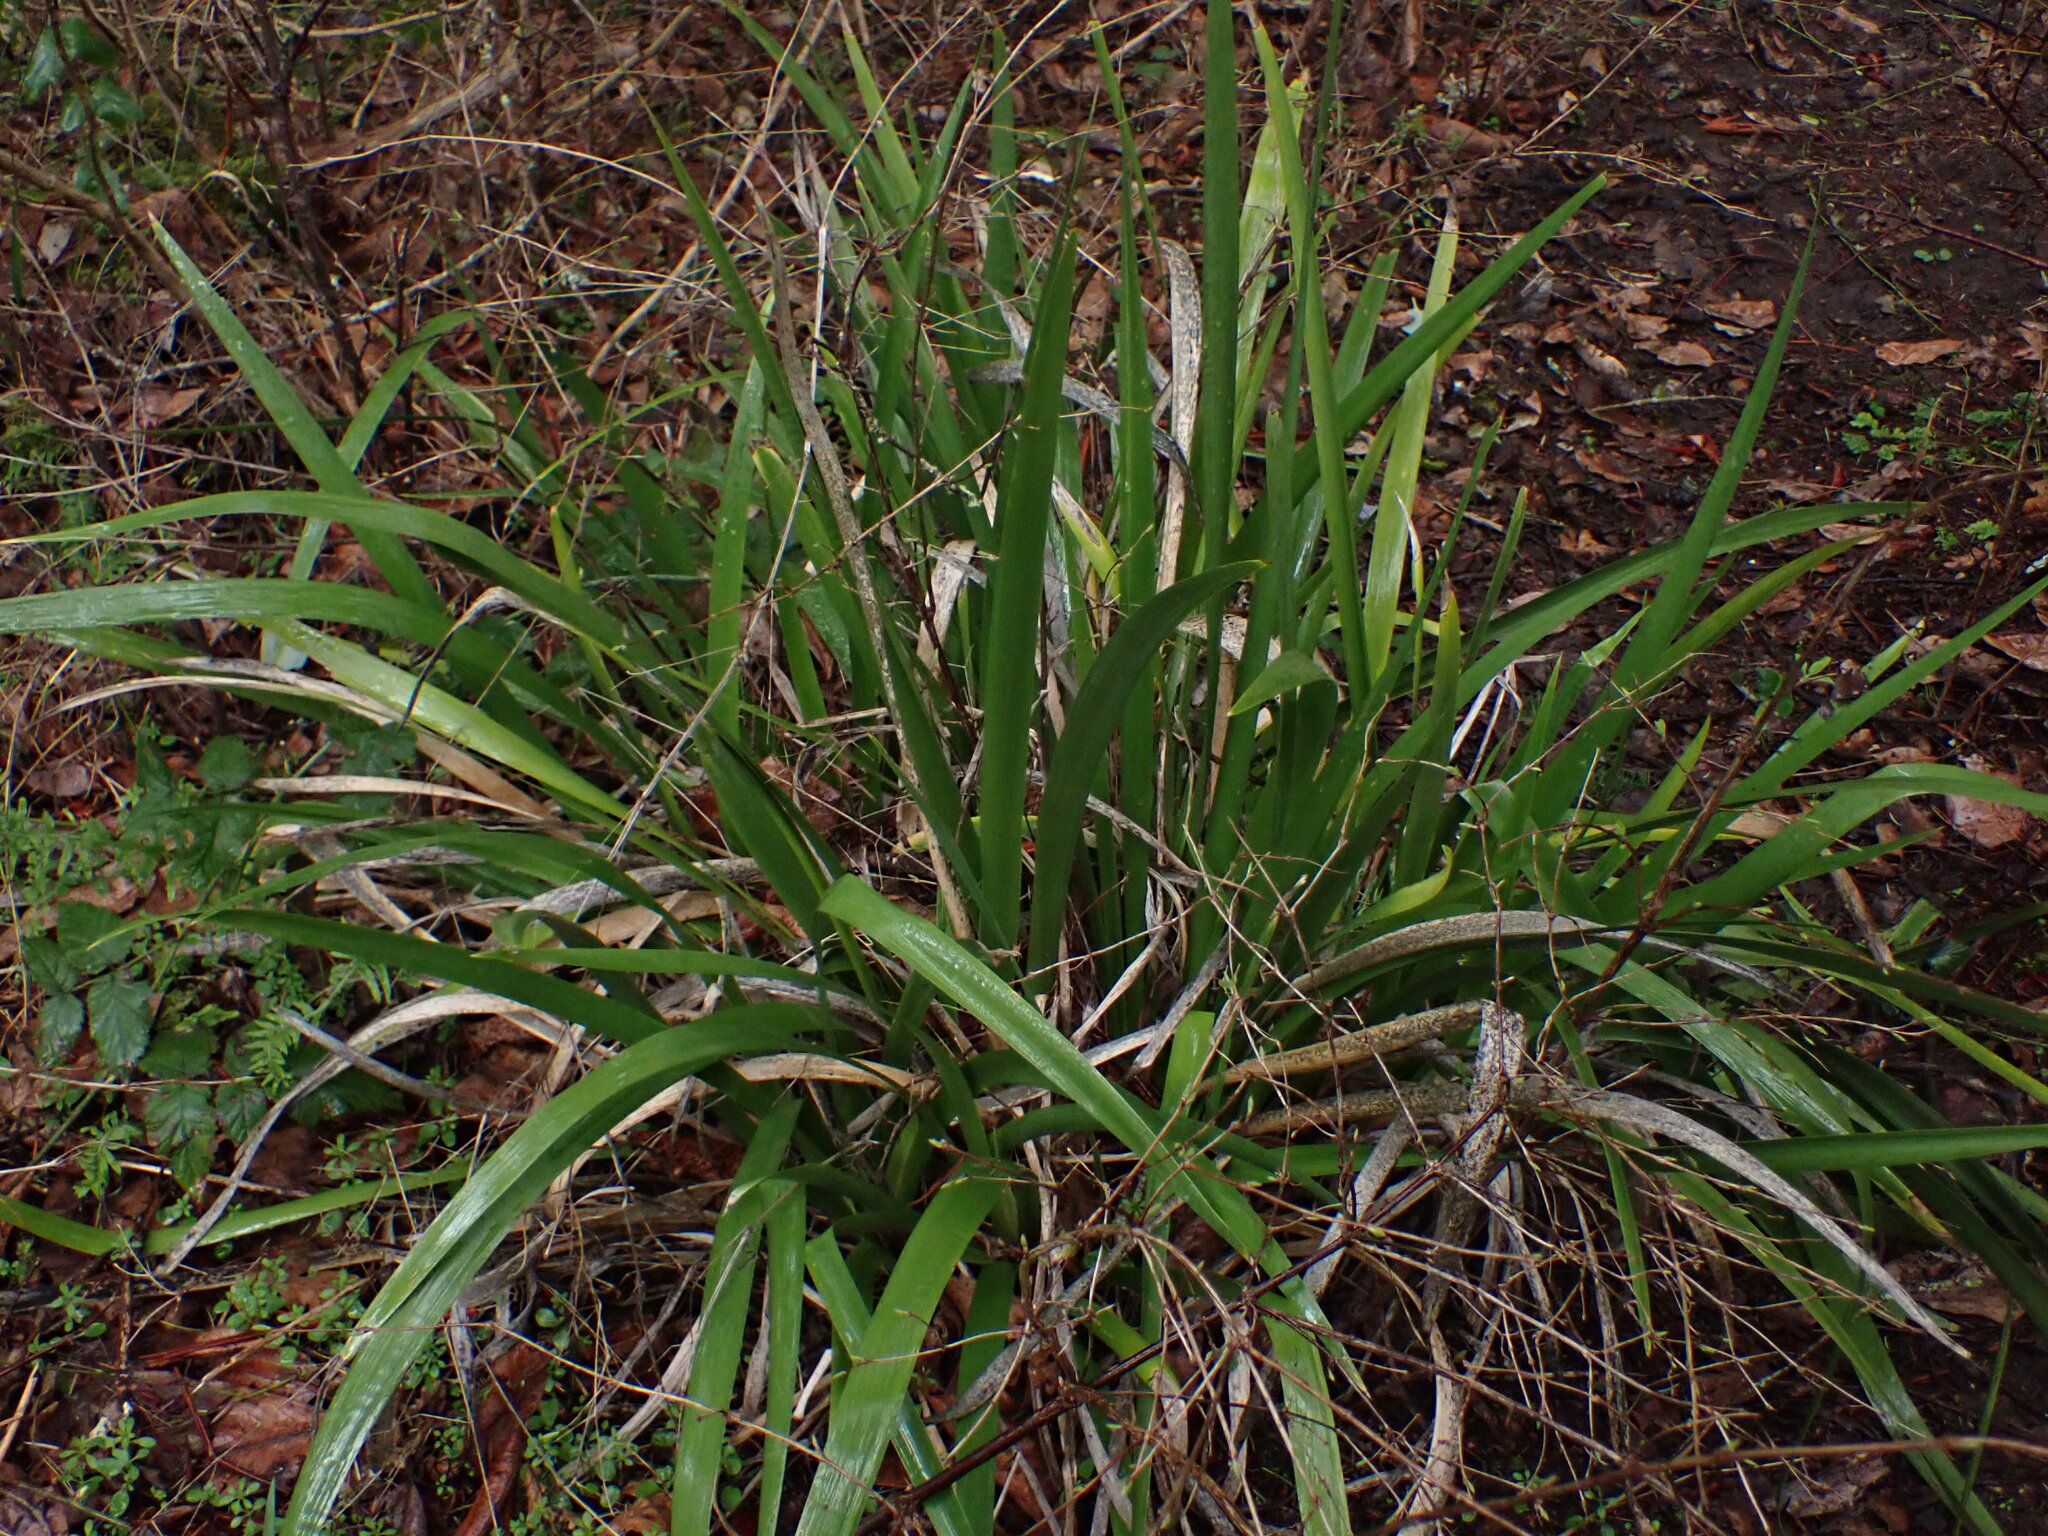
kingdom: Plantae
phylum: Tracheophyta
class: Liliopsida
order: Asparagales
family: Iridaceae
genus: Iris
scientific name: Iris foetidissima
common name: Stinking iris
